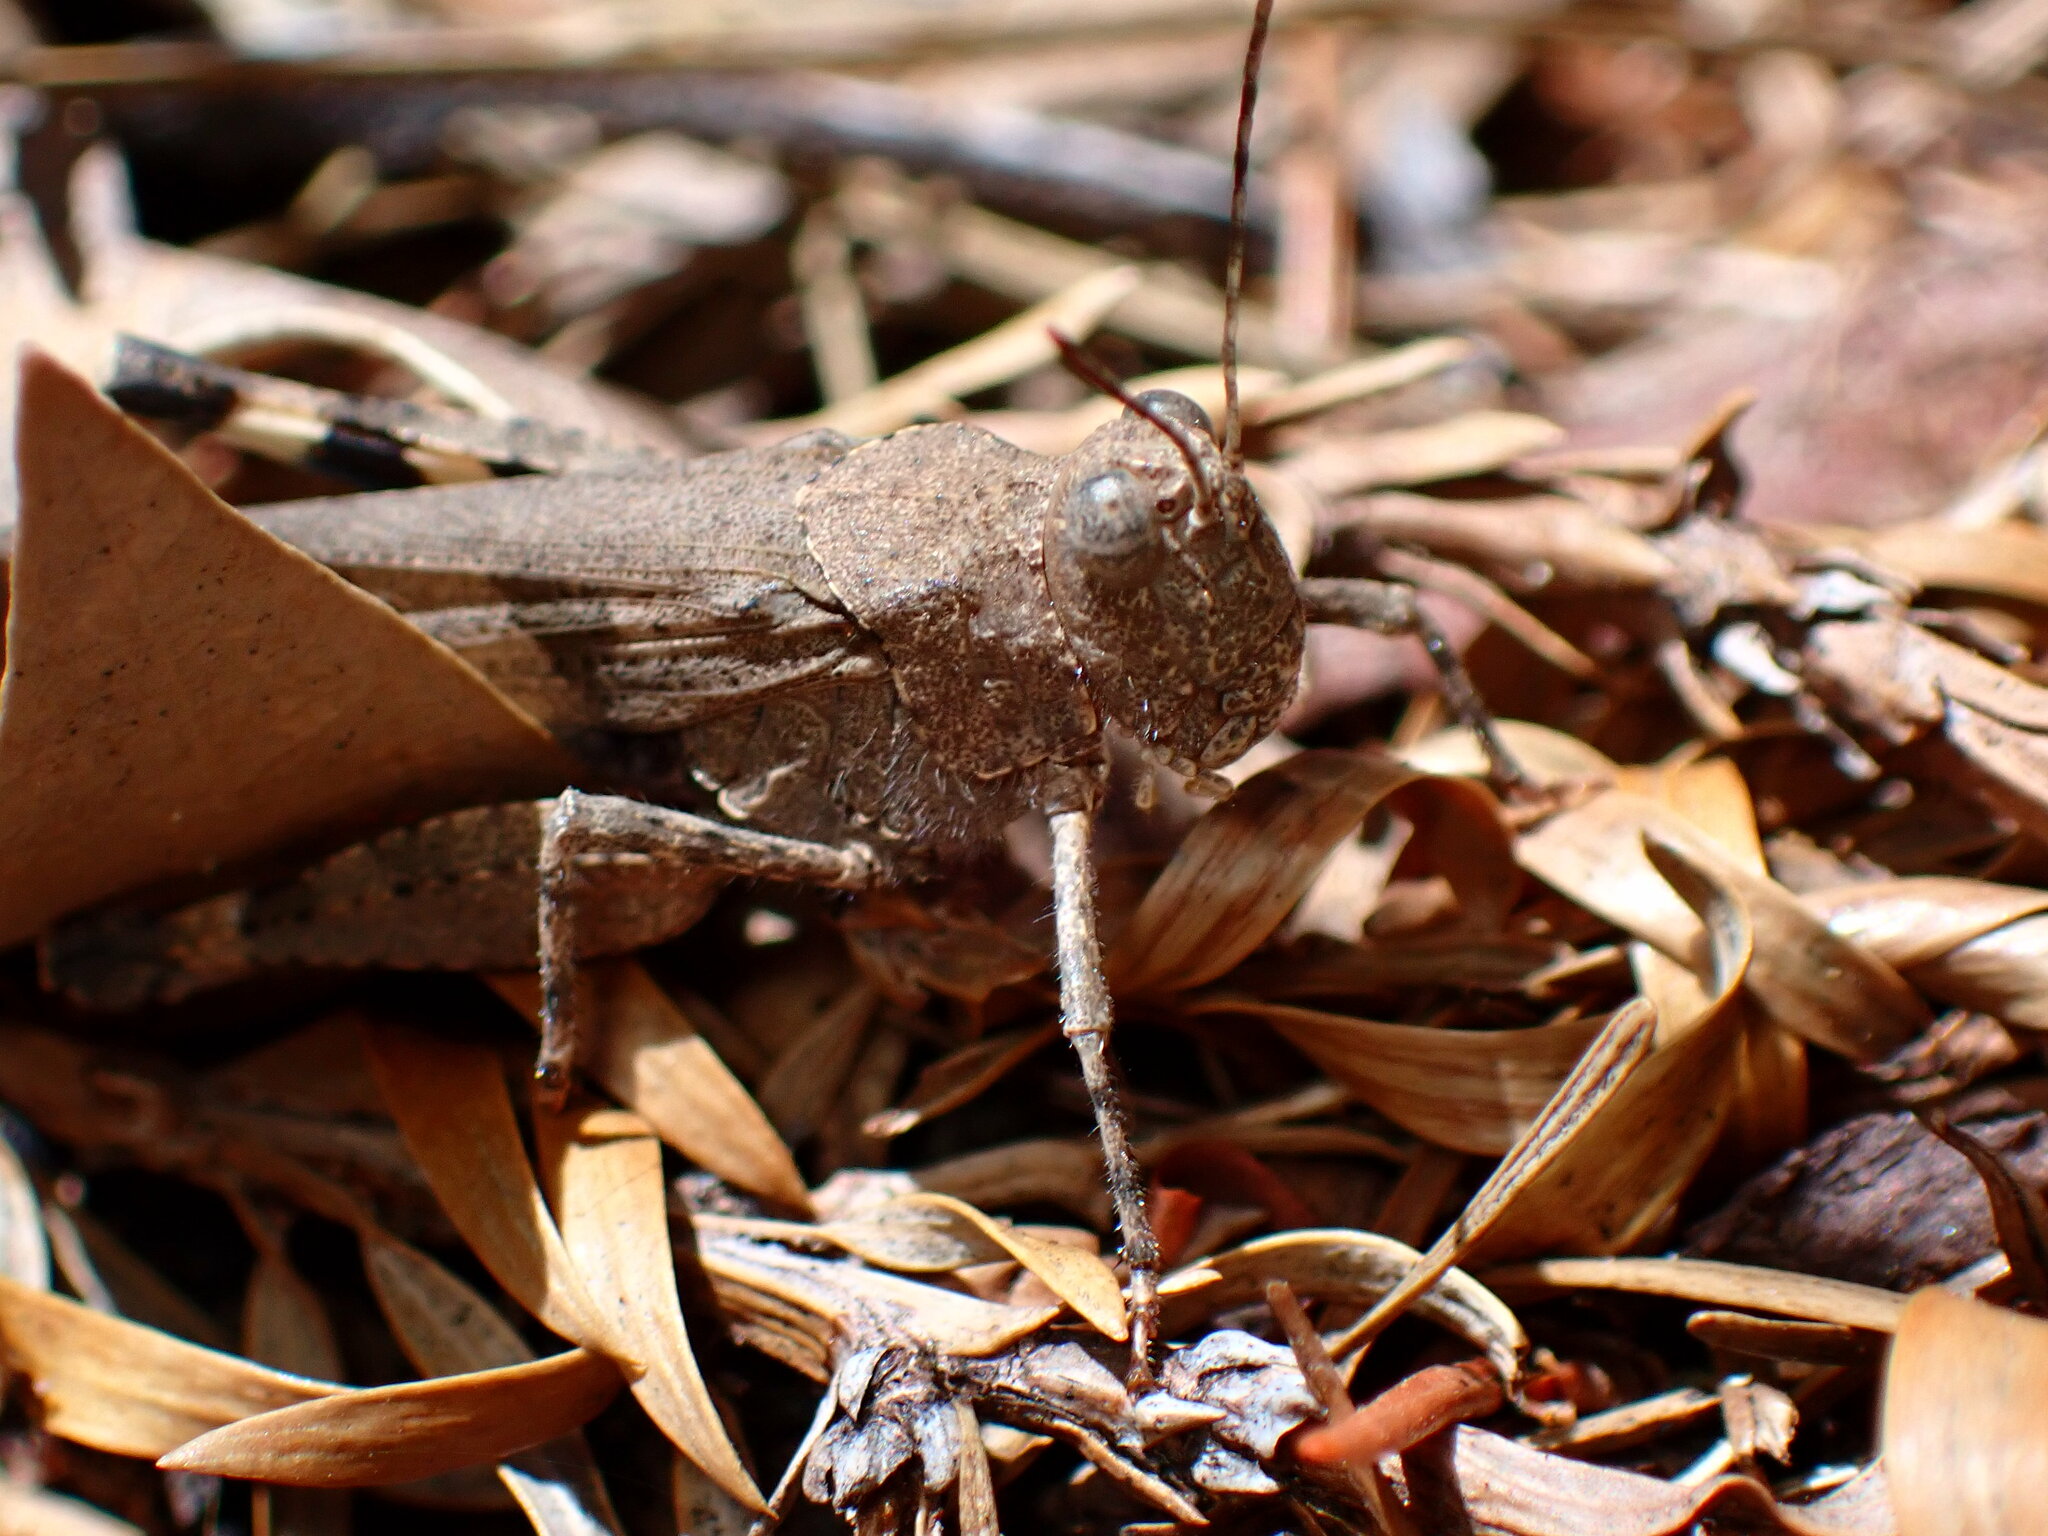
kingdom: Animalia
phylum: Arthropoda
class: Insecta
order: Orthoptera
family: Acrididae
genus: Trimerotropis
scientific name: Trimerotropis fontana
